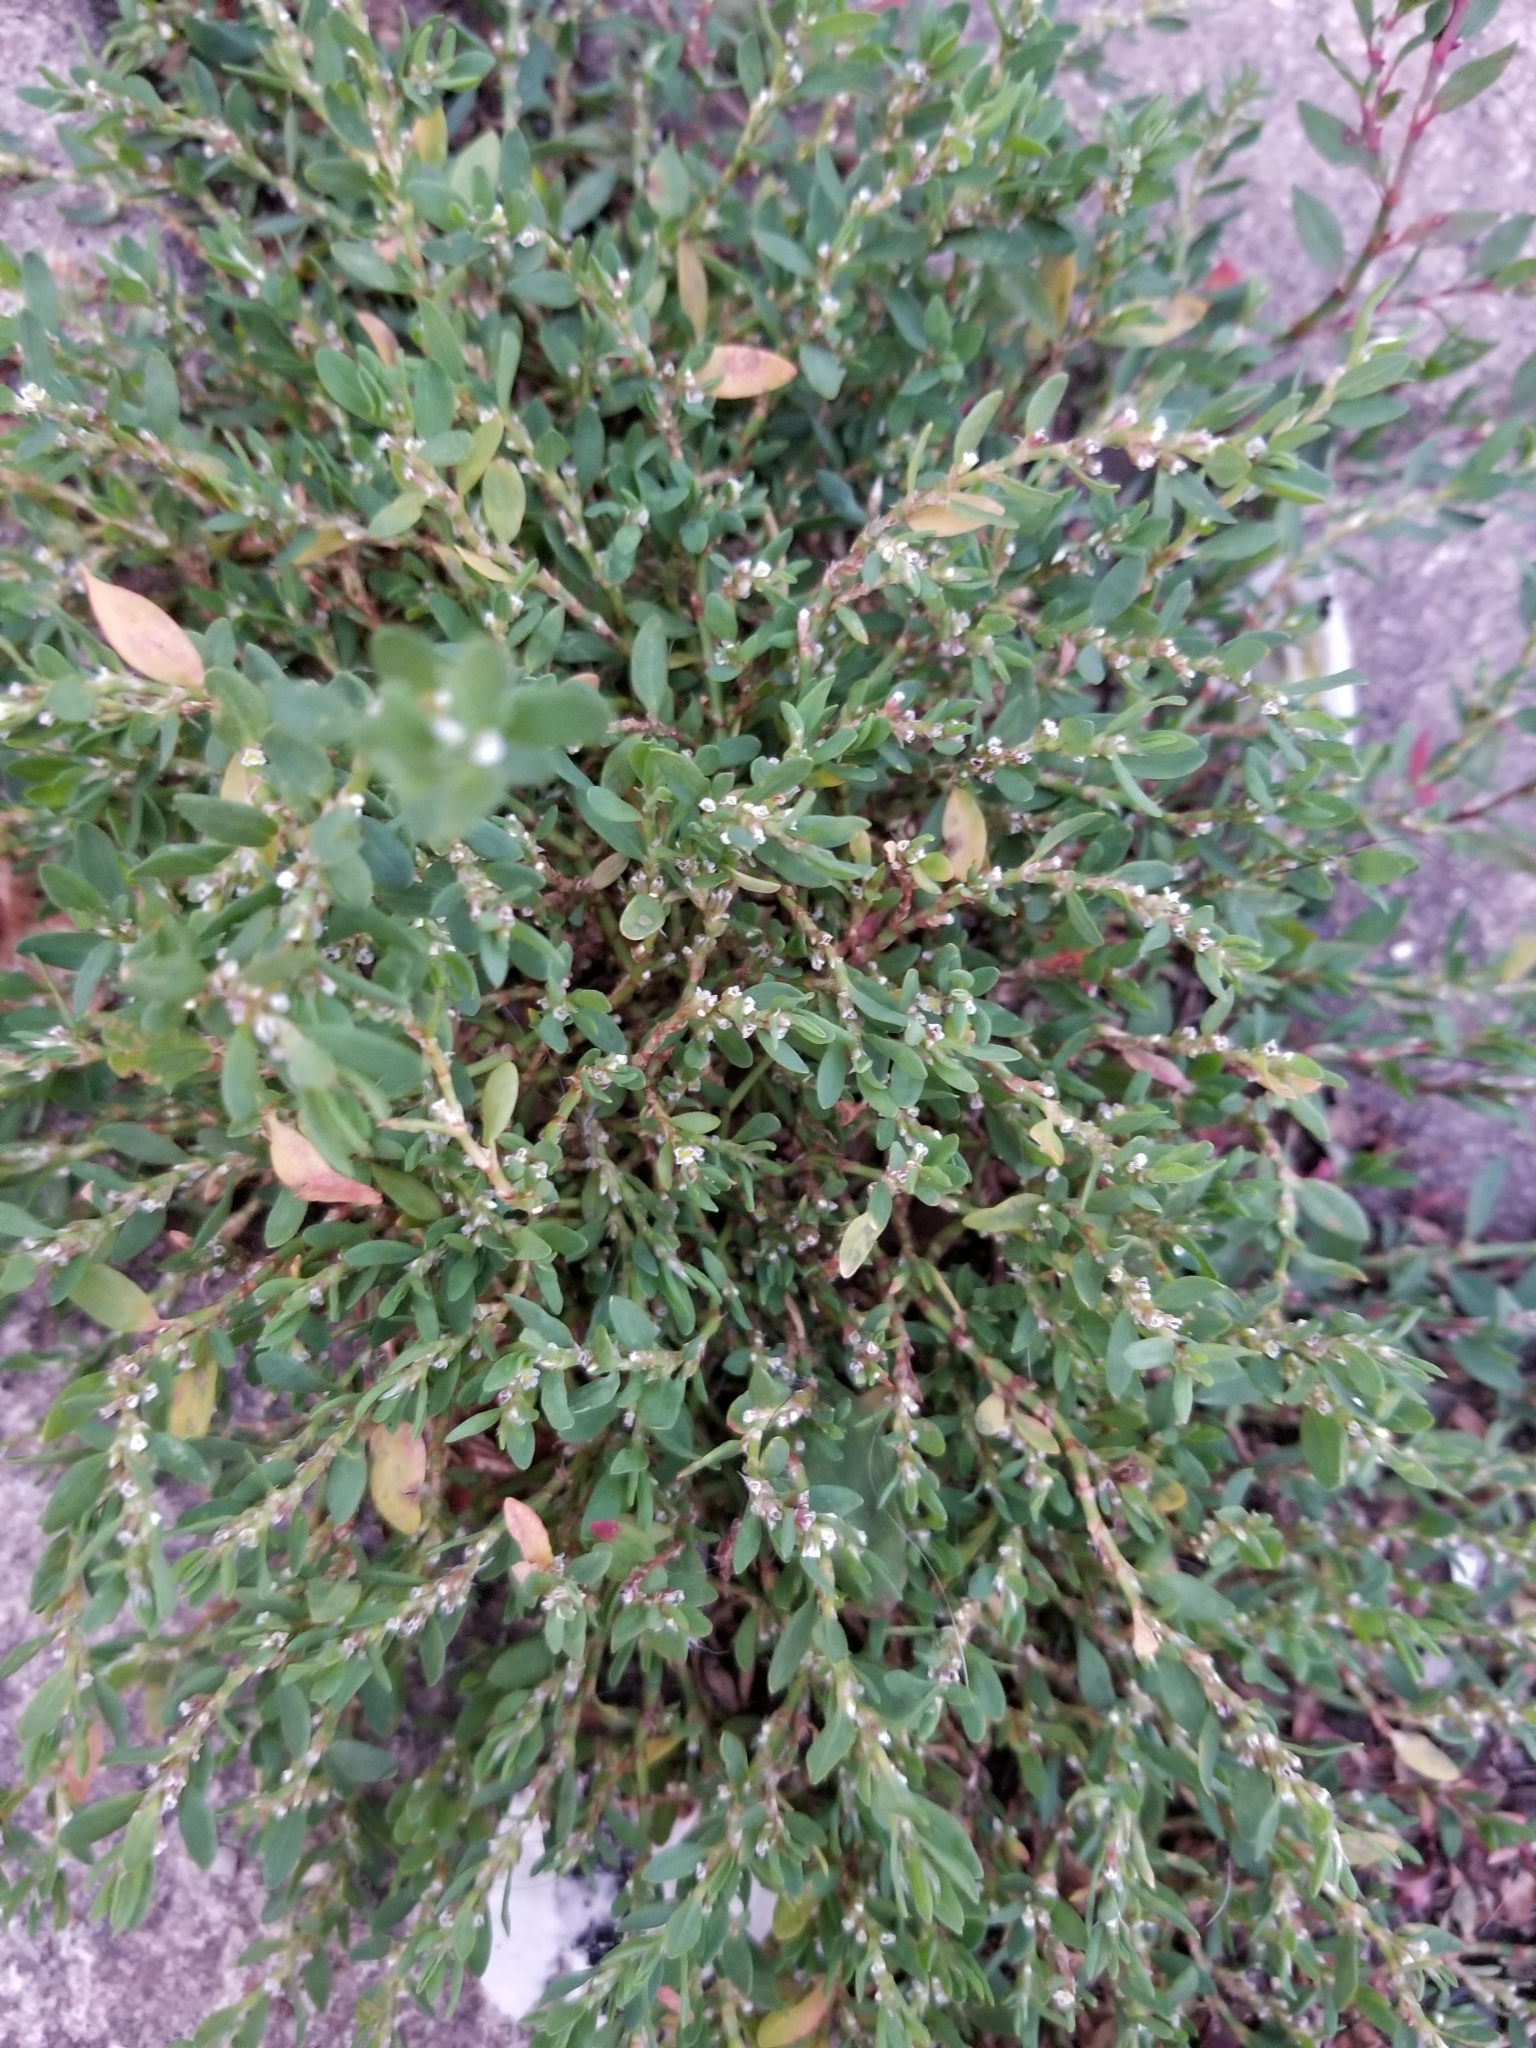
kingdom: Plantae
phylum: Tracheophyta
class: Magnoliopsida
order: Caryophyllales
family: Polygonaceae
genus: Polygonum
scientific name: Polygonum aviculare
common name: Prostrate knotweed
